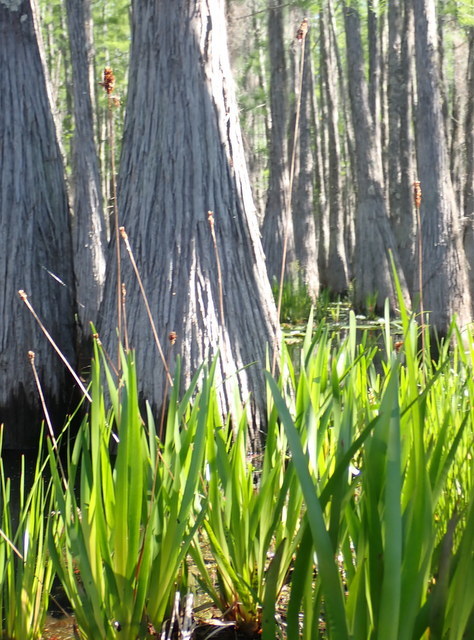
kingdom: Plantae
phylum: Tracheophyta
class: Liliopsida
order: Poales
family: Xyridaceae
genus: Xyris
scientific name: Xyris fimbriata
